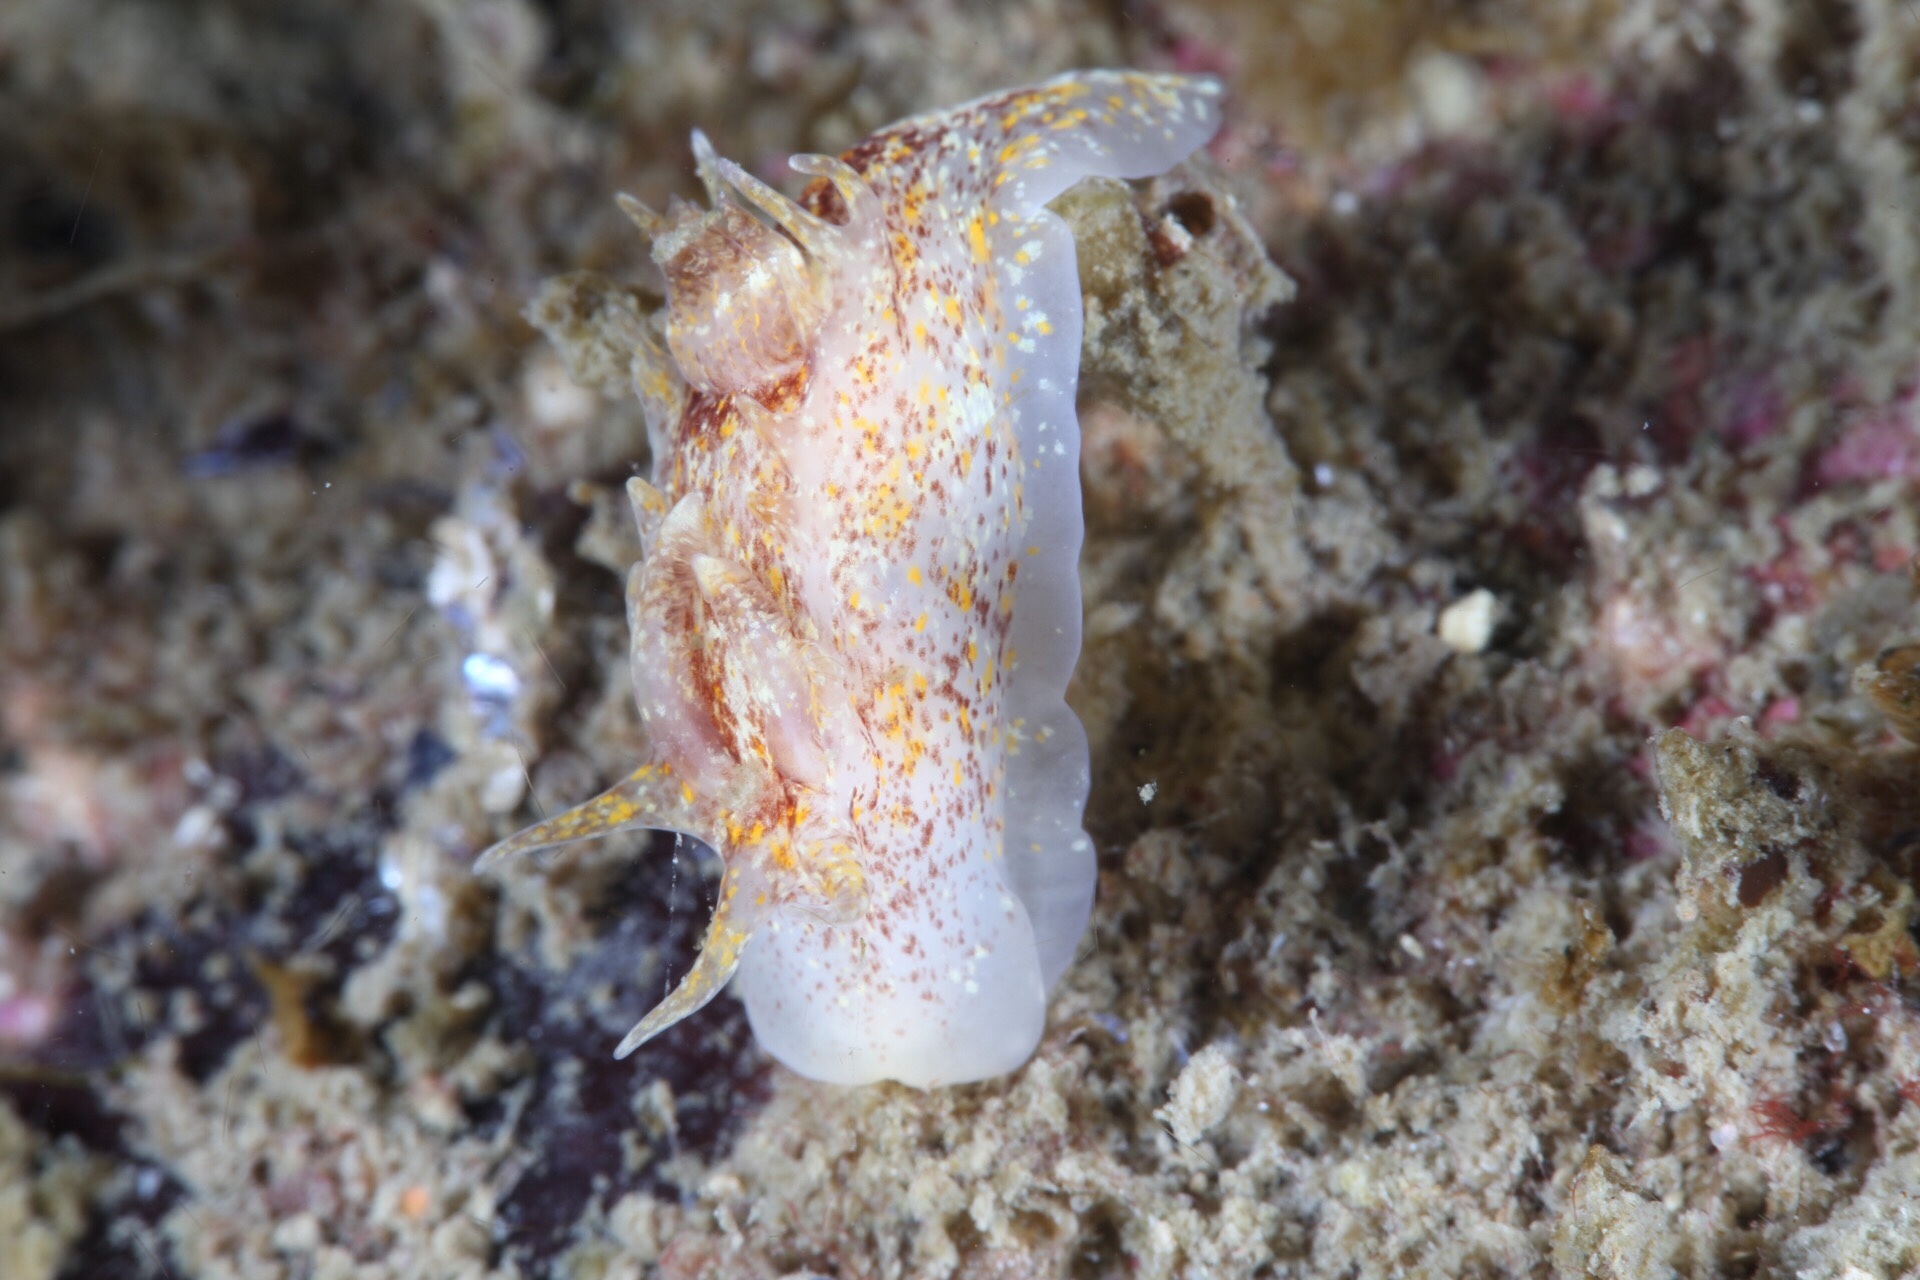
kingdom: Animalia
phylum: Mollusca
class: Gastropoda
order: Nudibranchia
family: Goniodorididae
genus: Okenia
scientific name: Okenia aspersa
